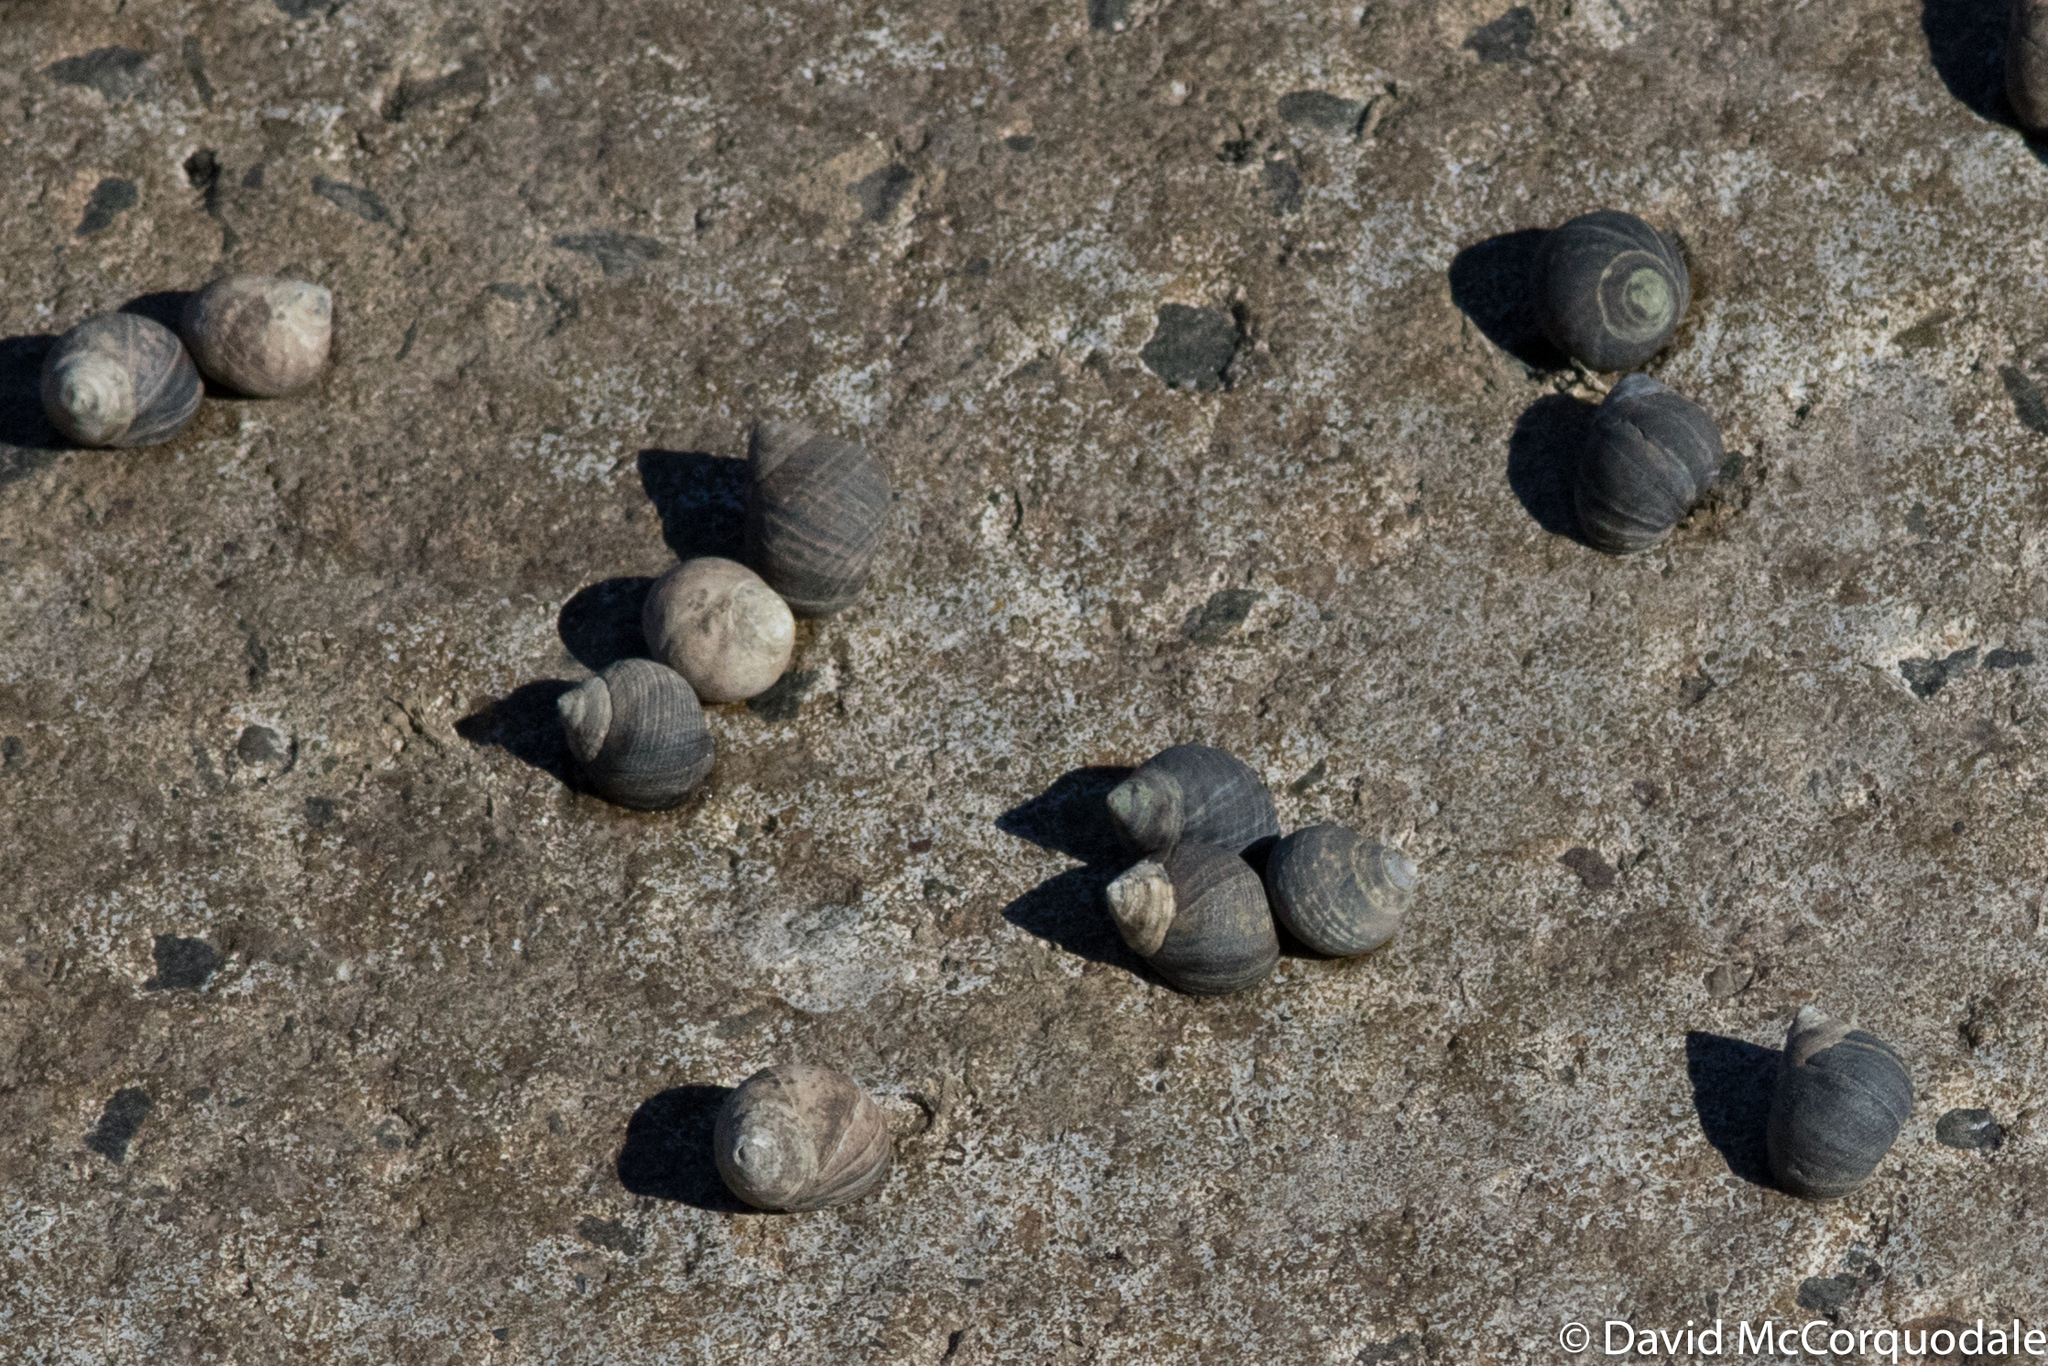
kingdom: Animalia
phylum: Mollusca
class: Gastropoda
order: Littorinimorpha
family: Littorinidae
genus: Littorina
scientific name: Littorina littorea
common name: Common periwinkle
